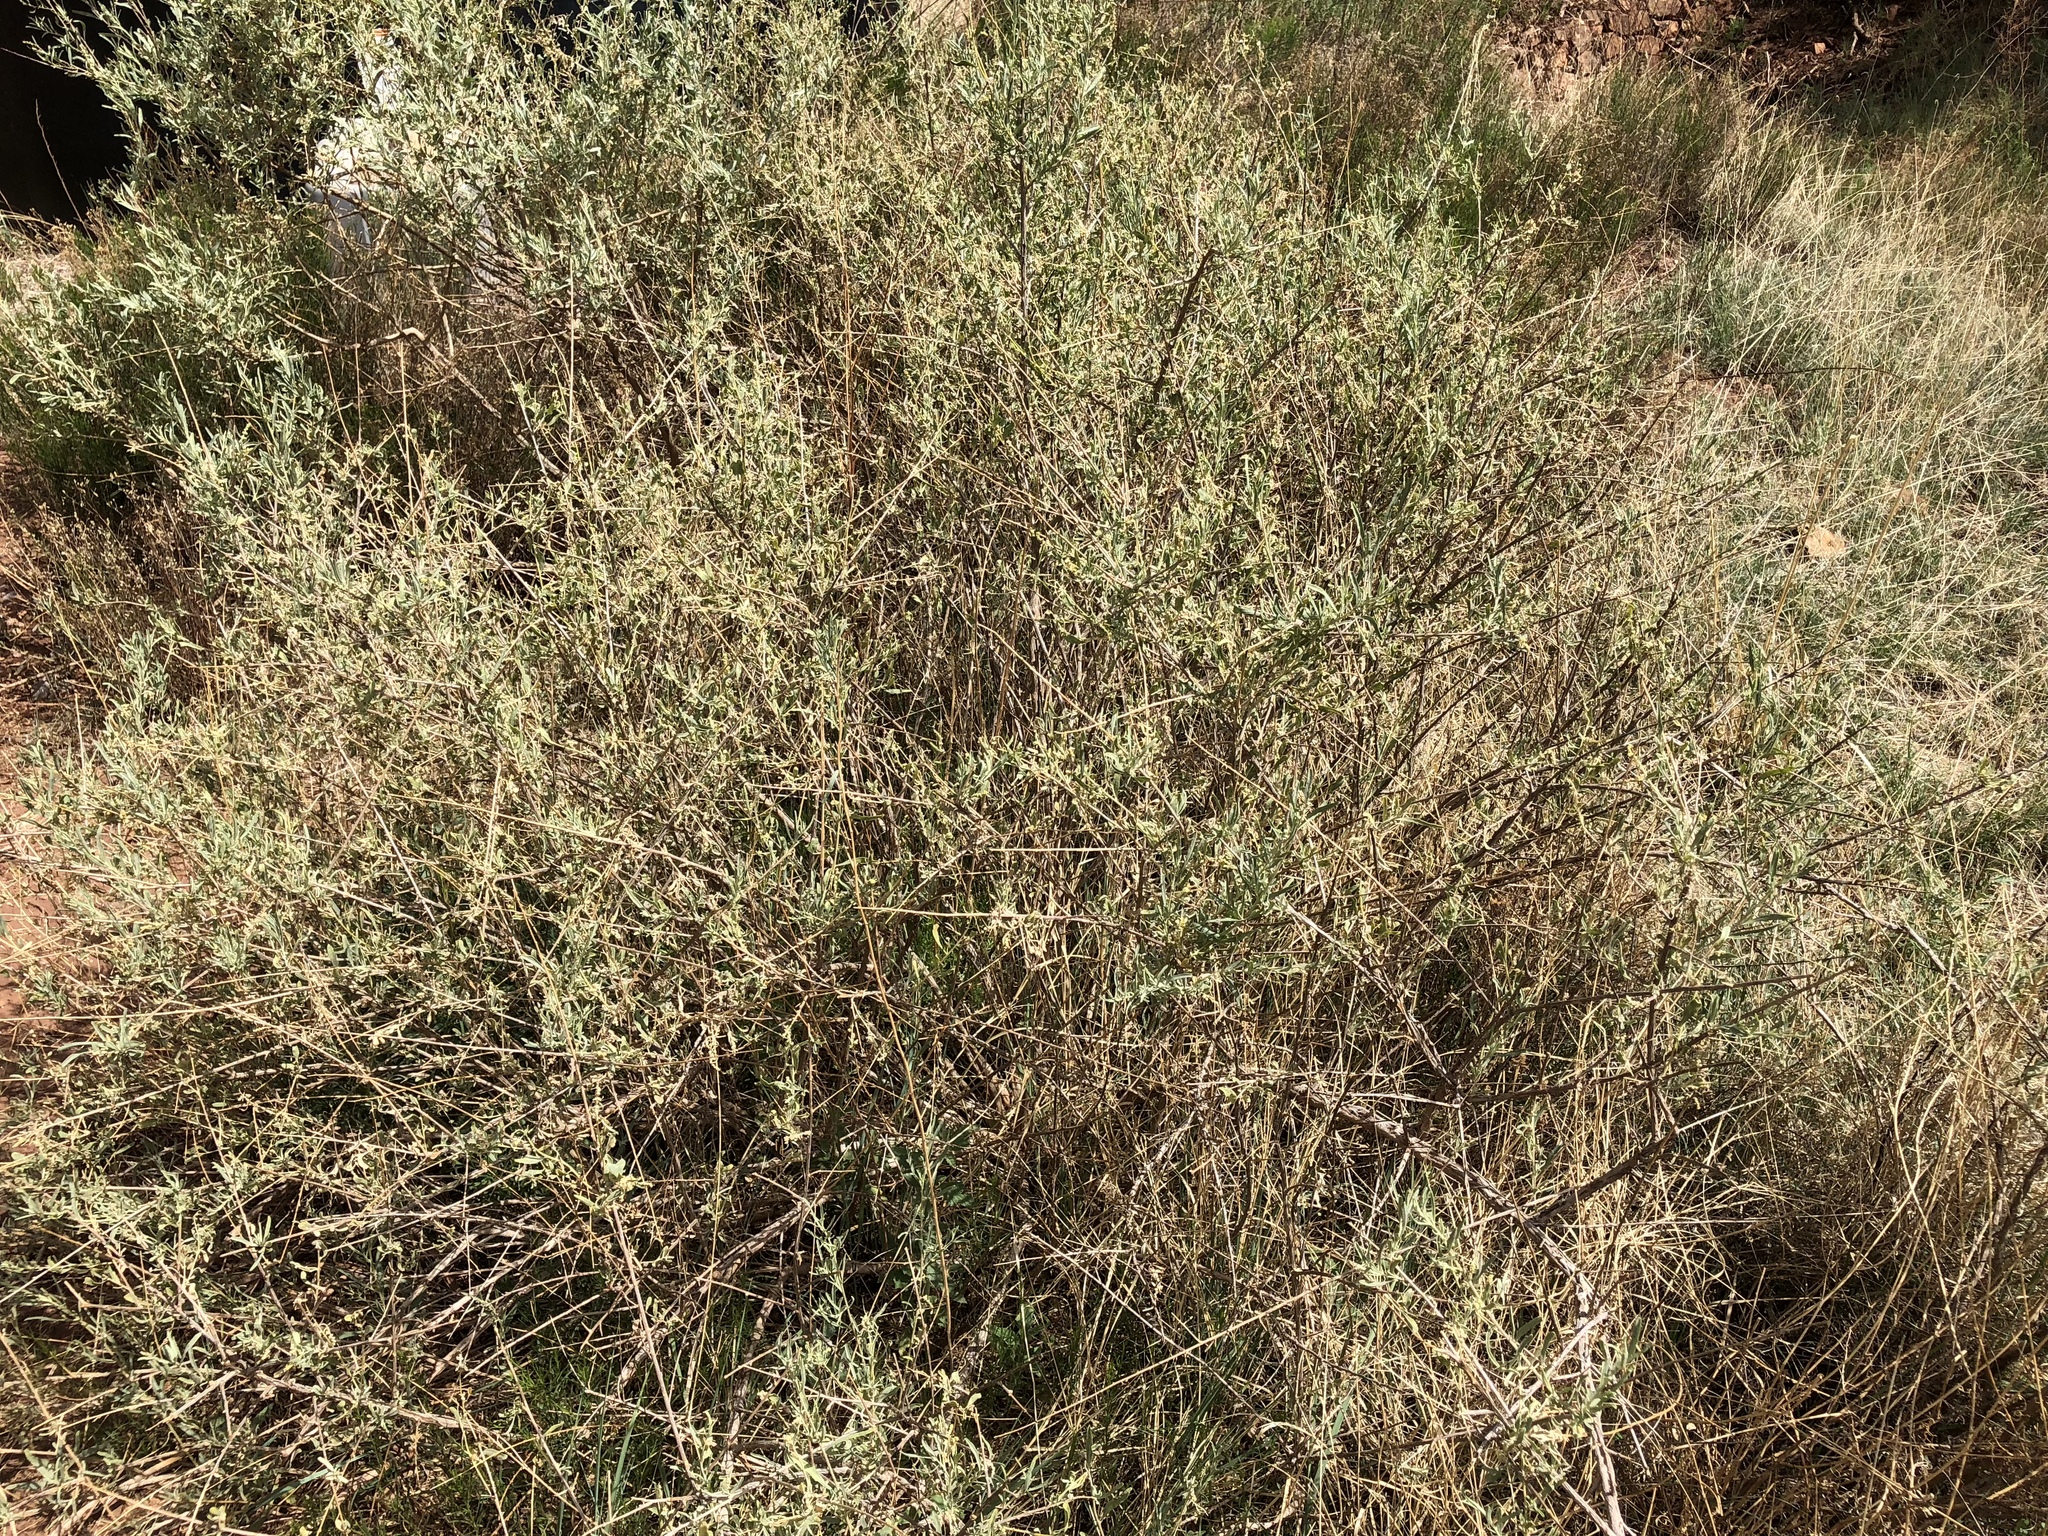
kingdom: Plantae
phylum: Tracheophyta
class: Magnoliopsida
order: Caryophyllales
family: Amaranthaceae
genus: Atriplex
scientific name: Atriplex canescens
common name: Four-wing saltbush
